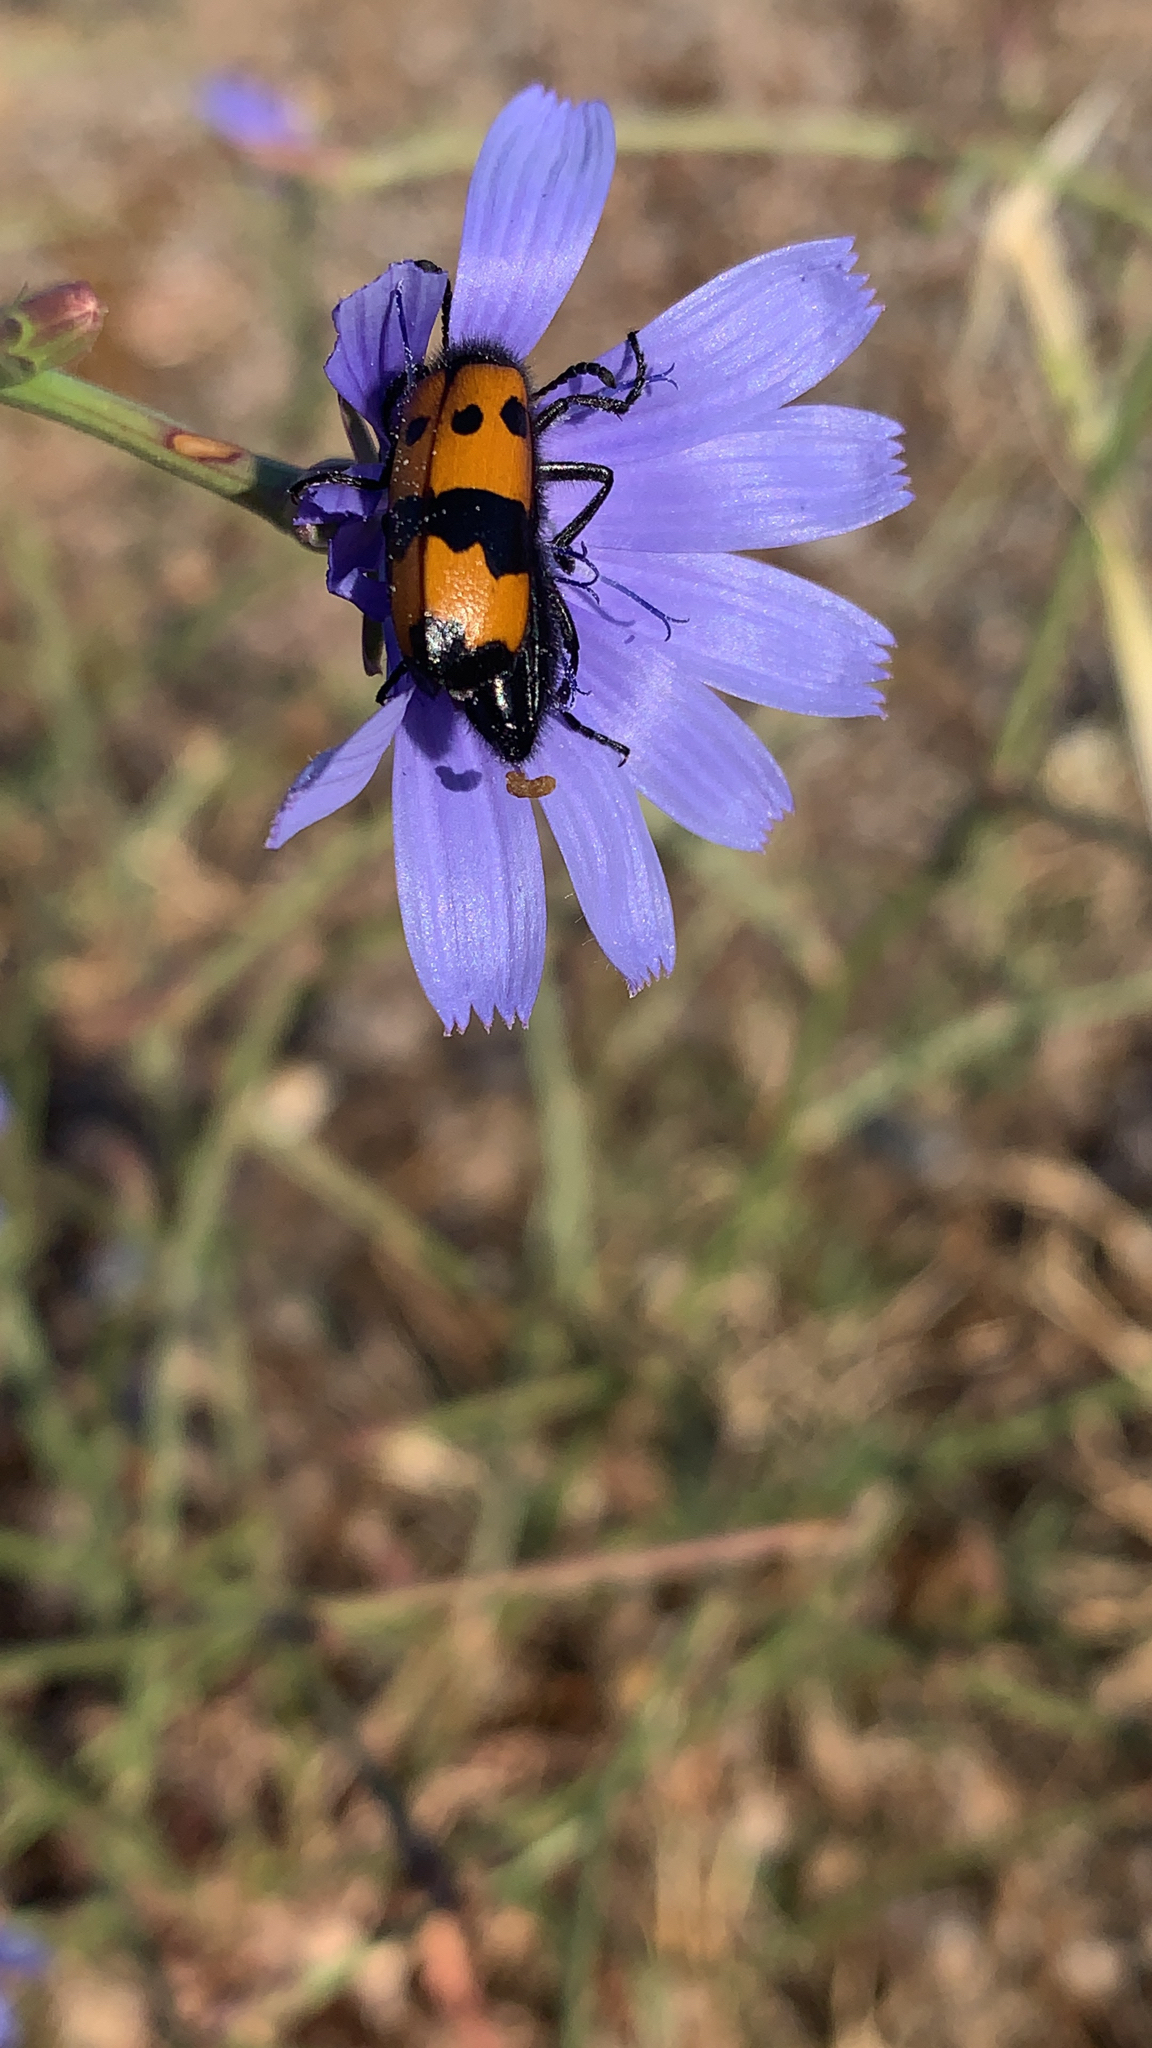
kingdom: Animalia
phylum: Arthropoda
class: Insecta
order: Coleoptera
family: Meloidae
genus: Mylabris
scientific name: Mylabris variabilis
